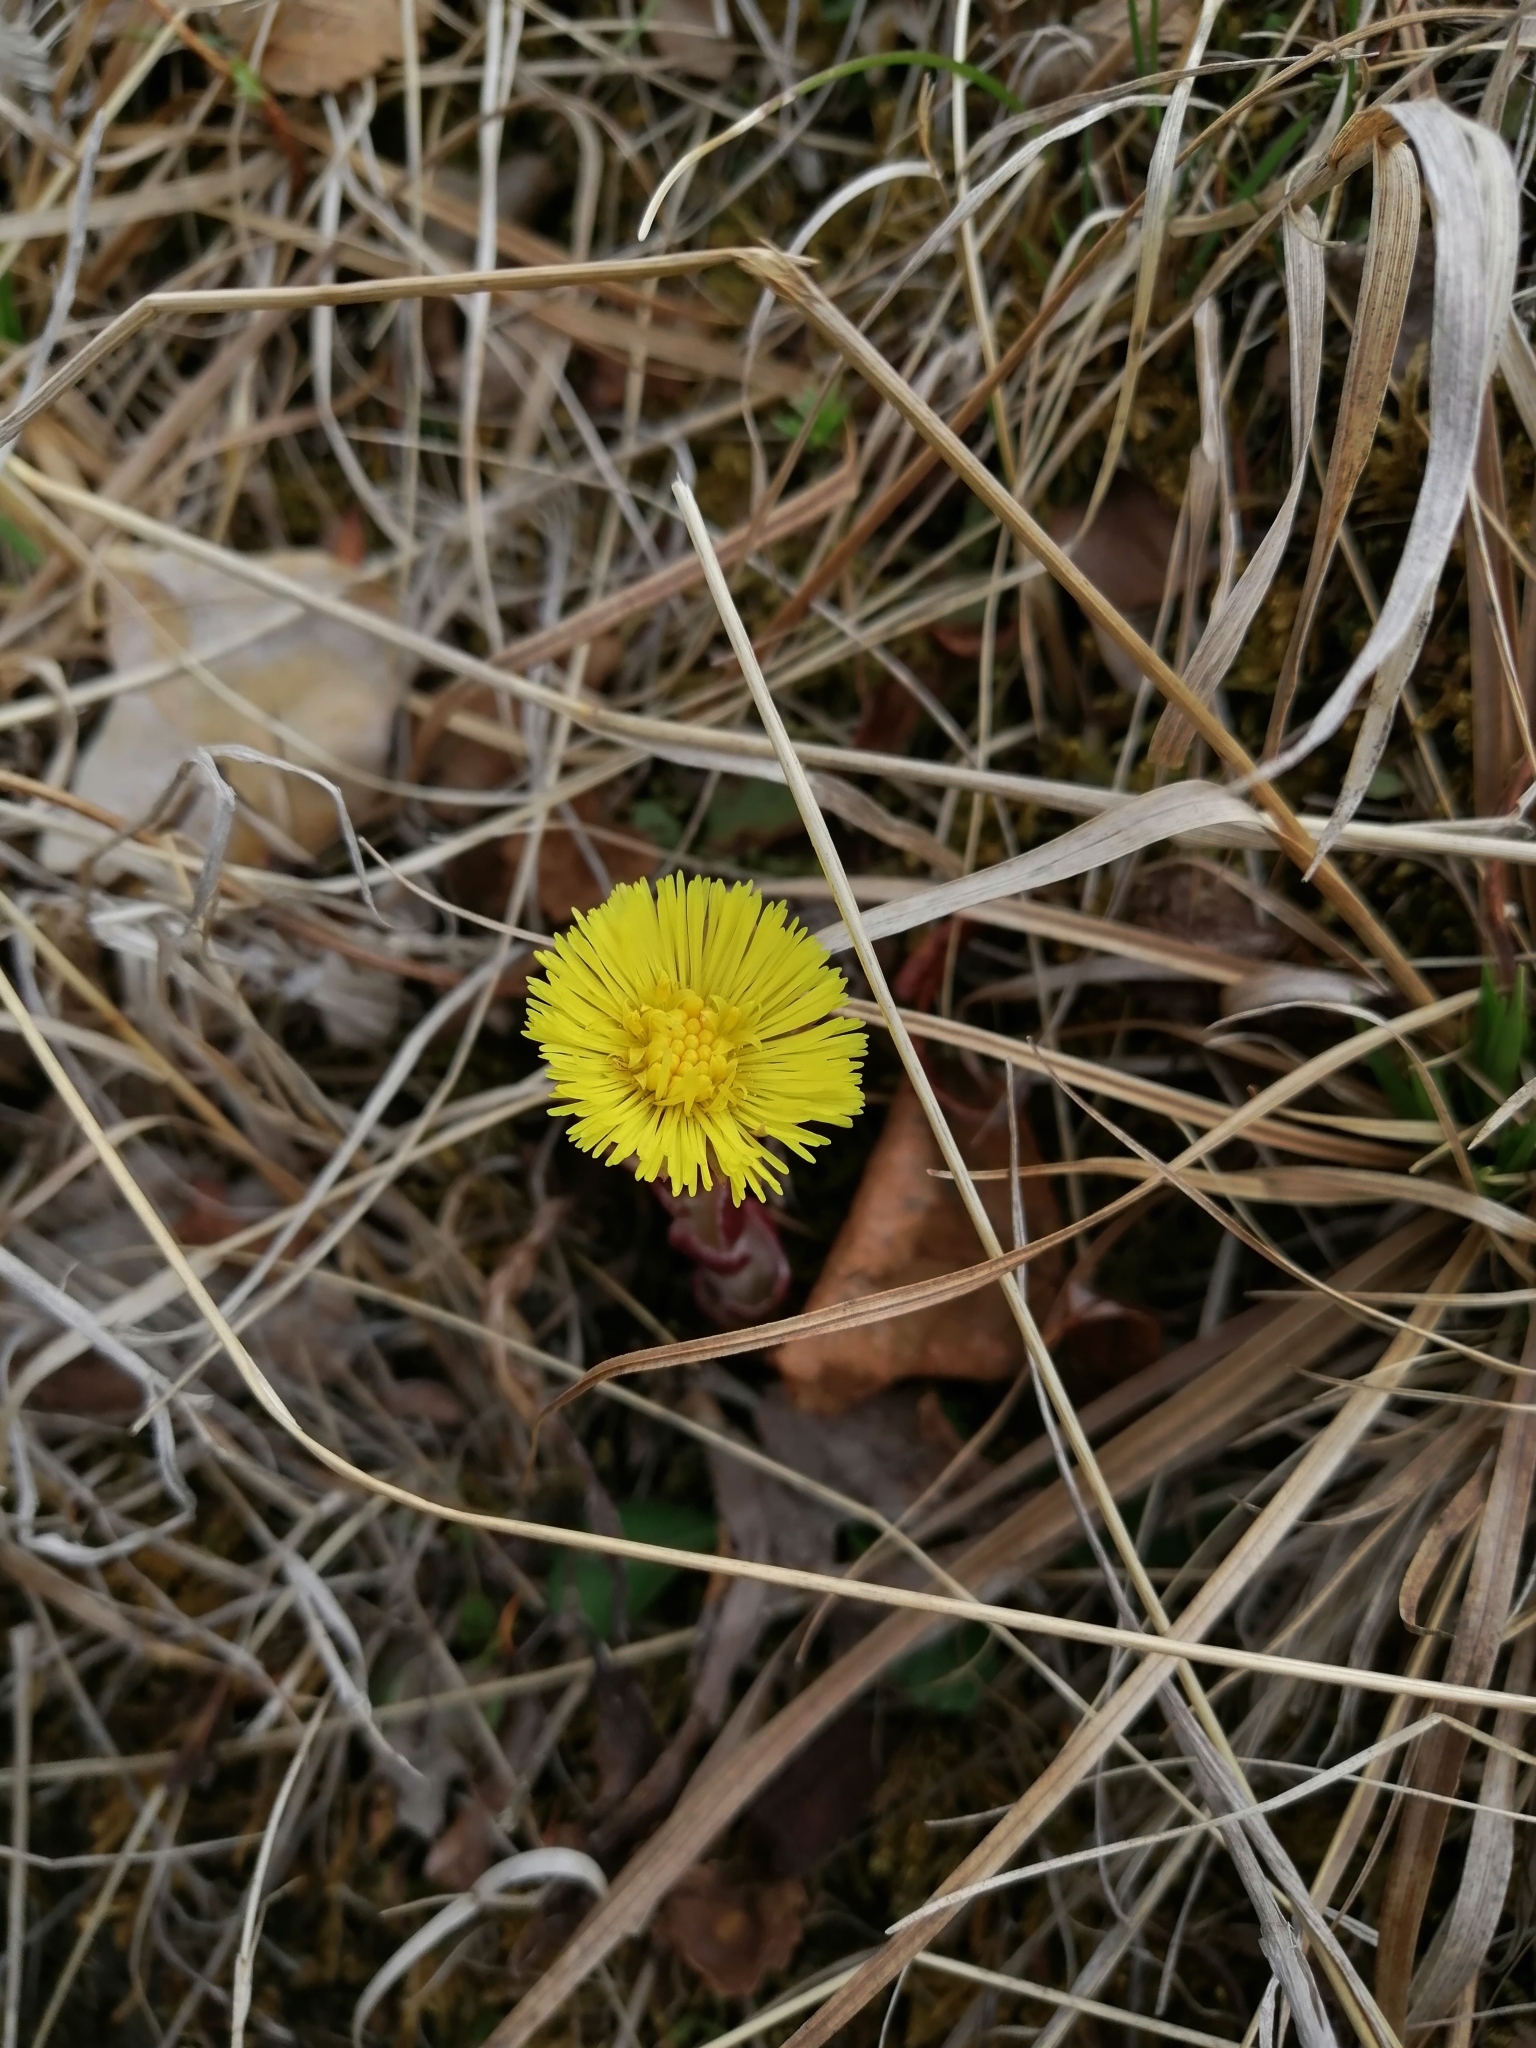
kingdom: Plantae
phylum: Tracheophyta
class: Magnoliopsida
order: Asterales
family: Asteraceae
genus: Tussilago
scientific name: Tussilago farfara
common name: Coltsfoot
